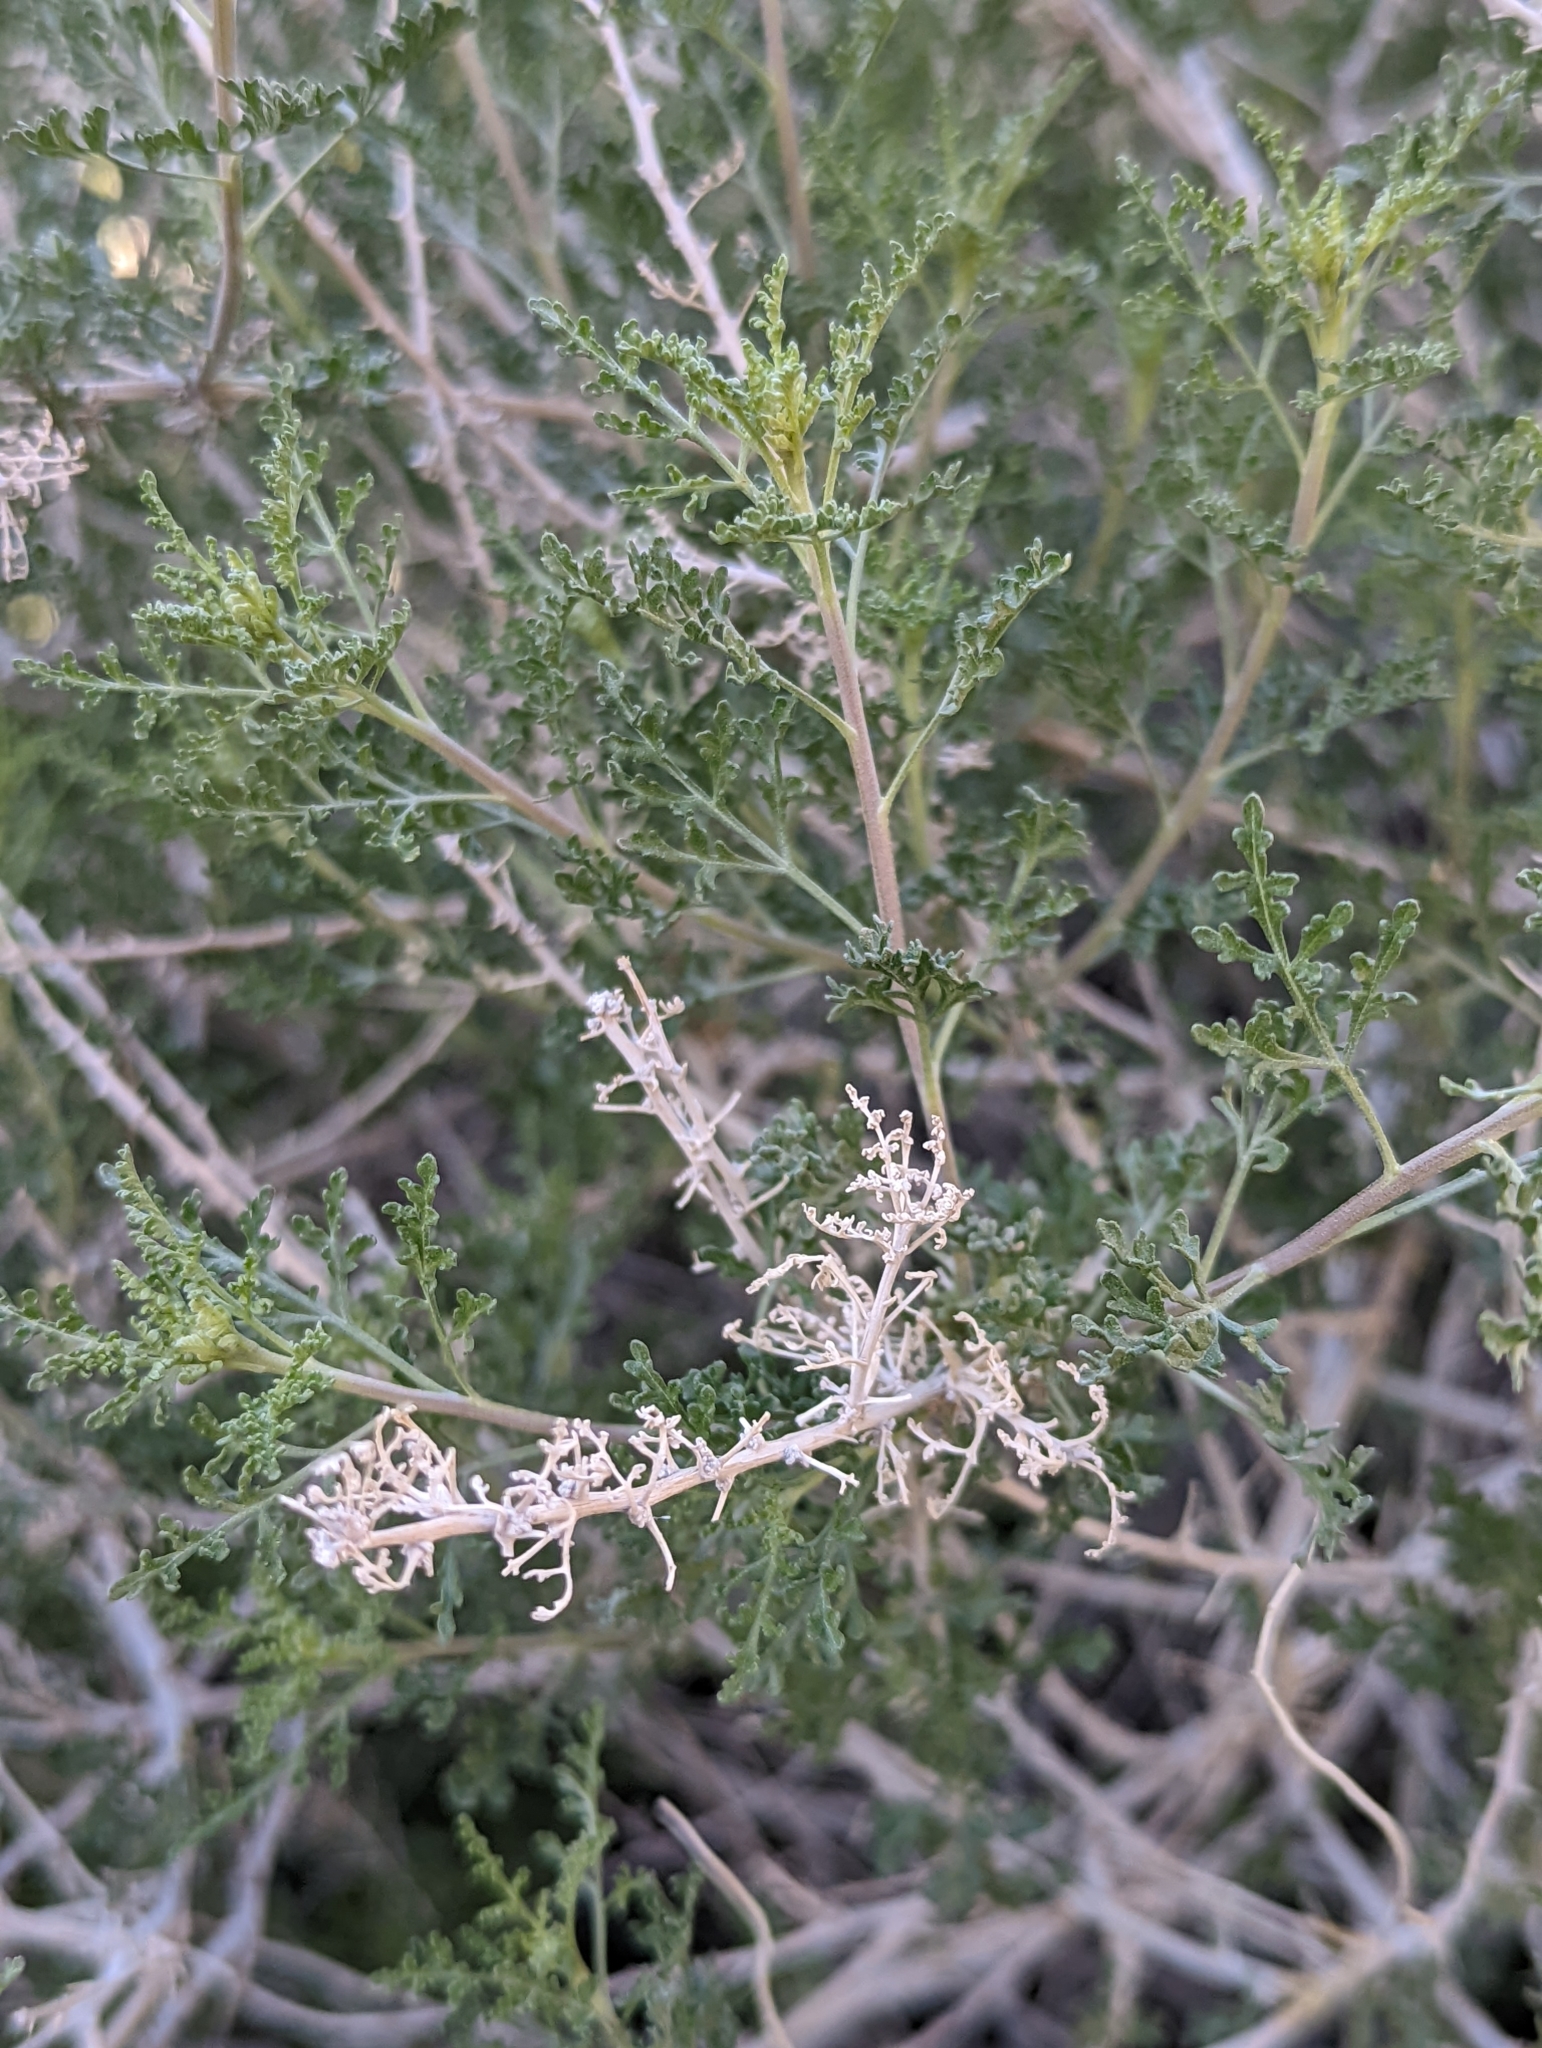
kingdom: Plantae
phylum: Tracheophyta
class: Magnoliopsida
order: Asterales
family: Asteraceae
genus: Ambrosia
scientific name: Ambrosia dumosa
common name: Bur-sage
